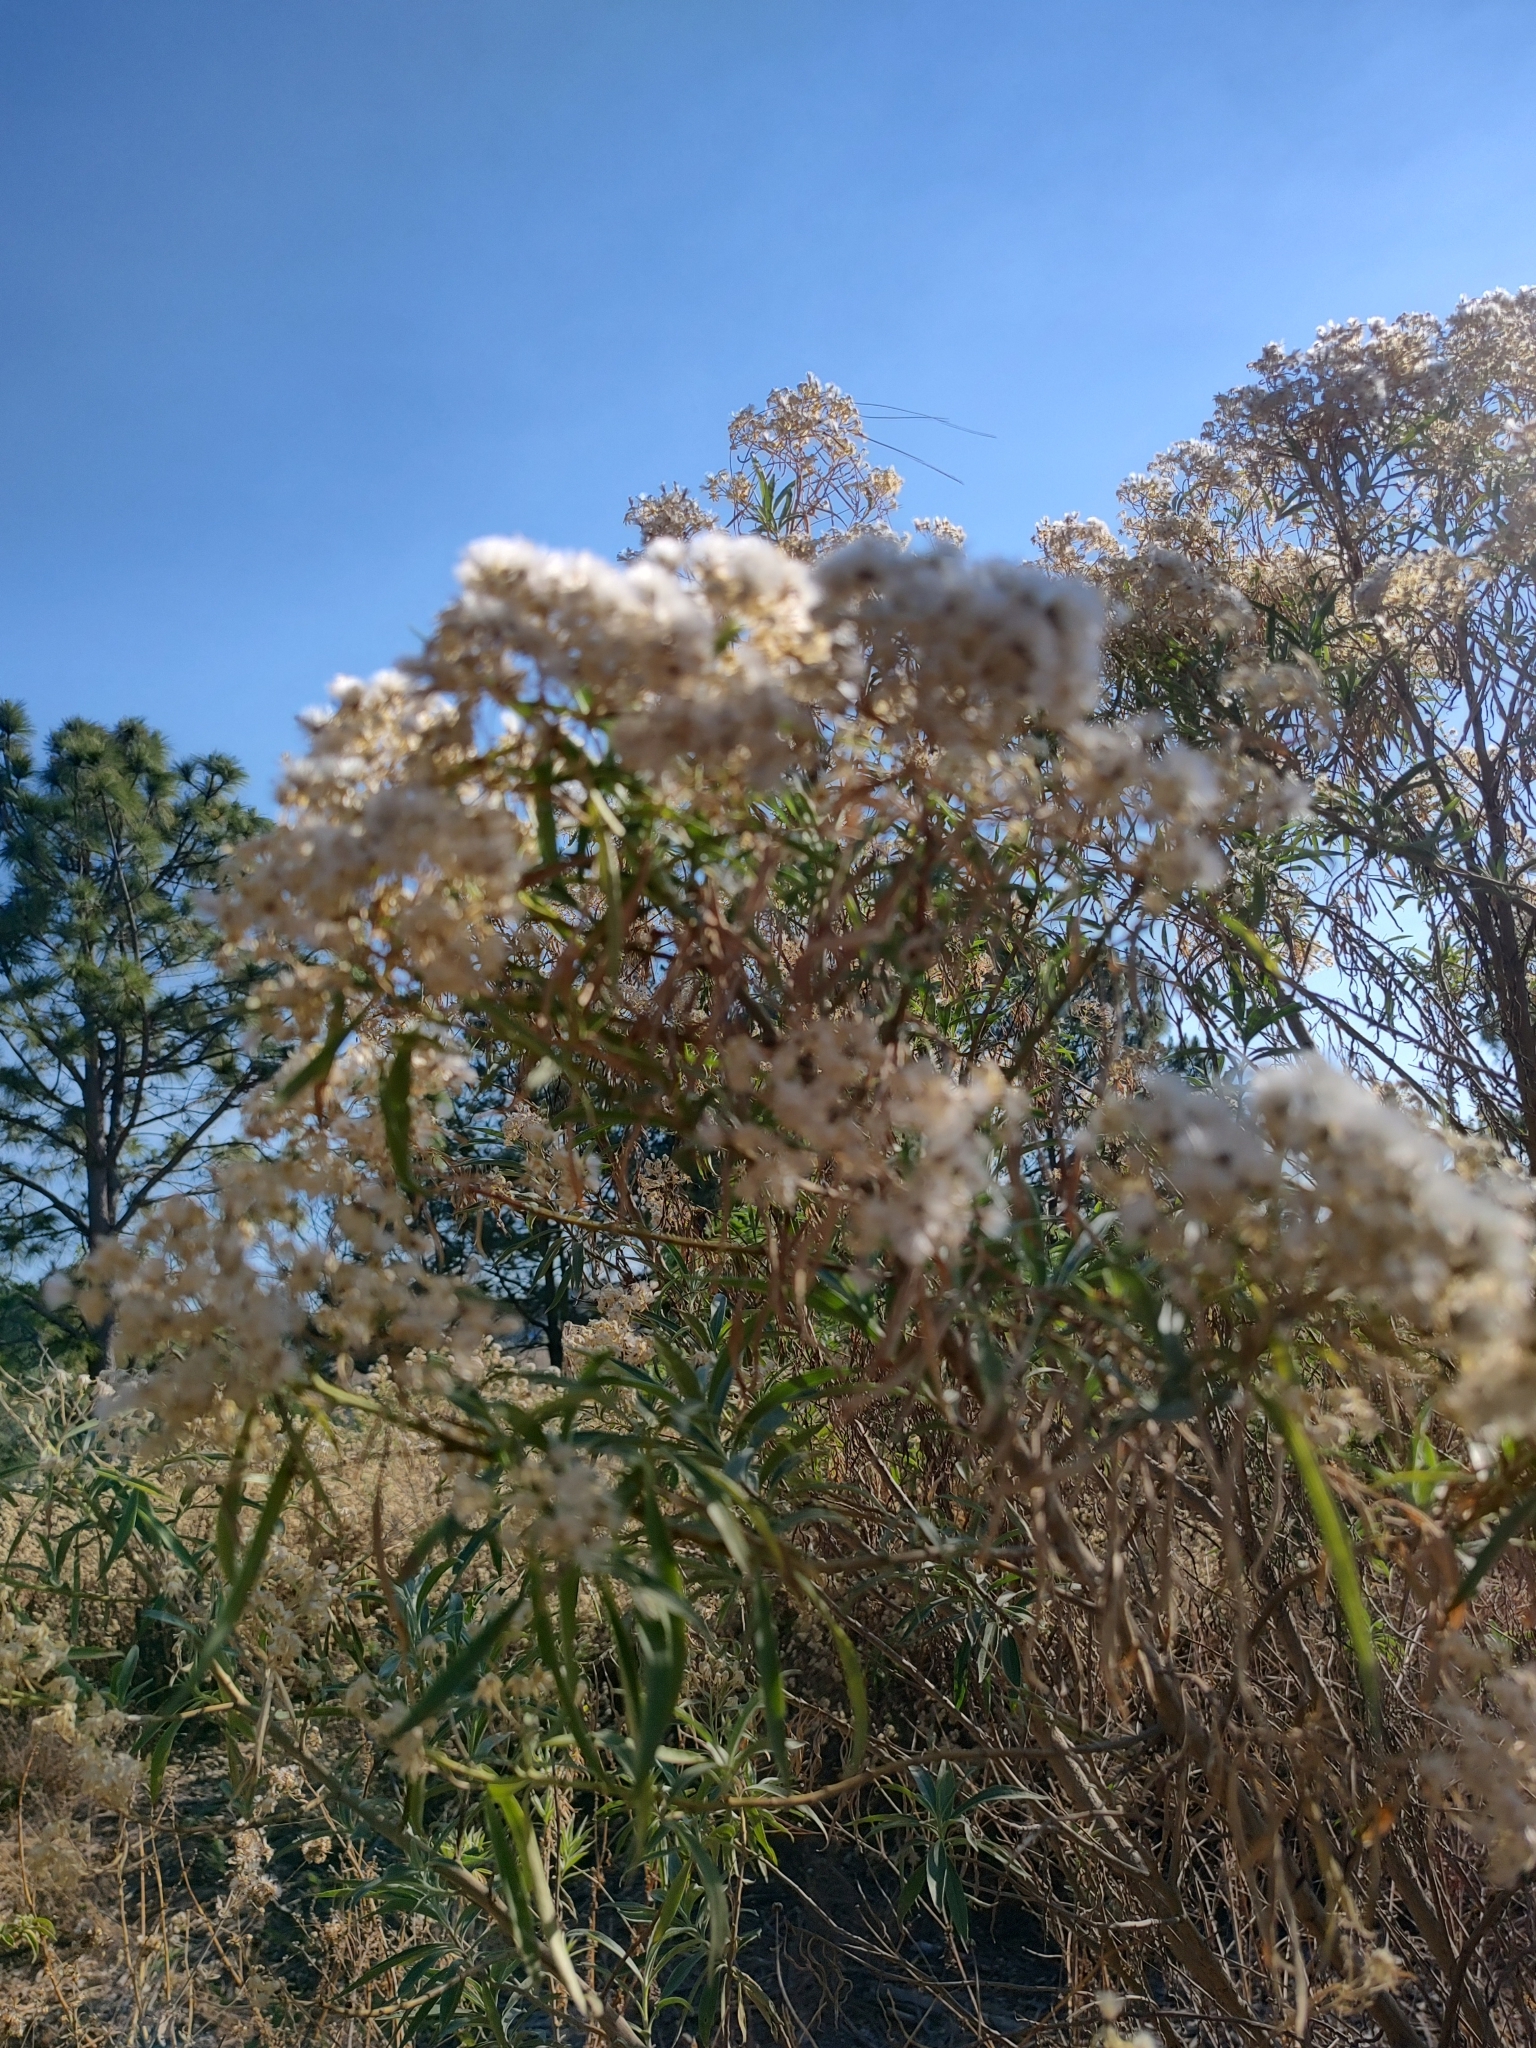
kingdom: Plantae
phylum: Tracheophyta
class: Magnoliopsida
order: Asterales
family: Asteraceae
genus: Barkleyanthus
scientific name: Barkleyanthus salicifolius
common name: Willow ragwort
